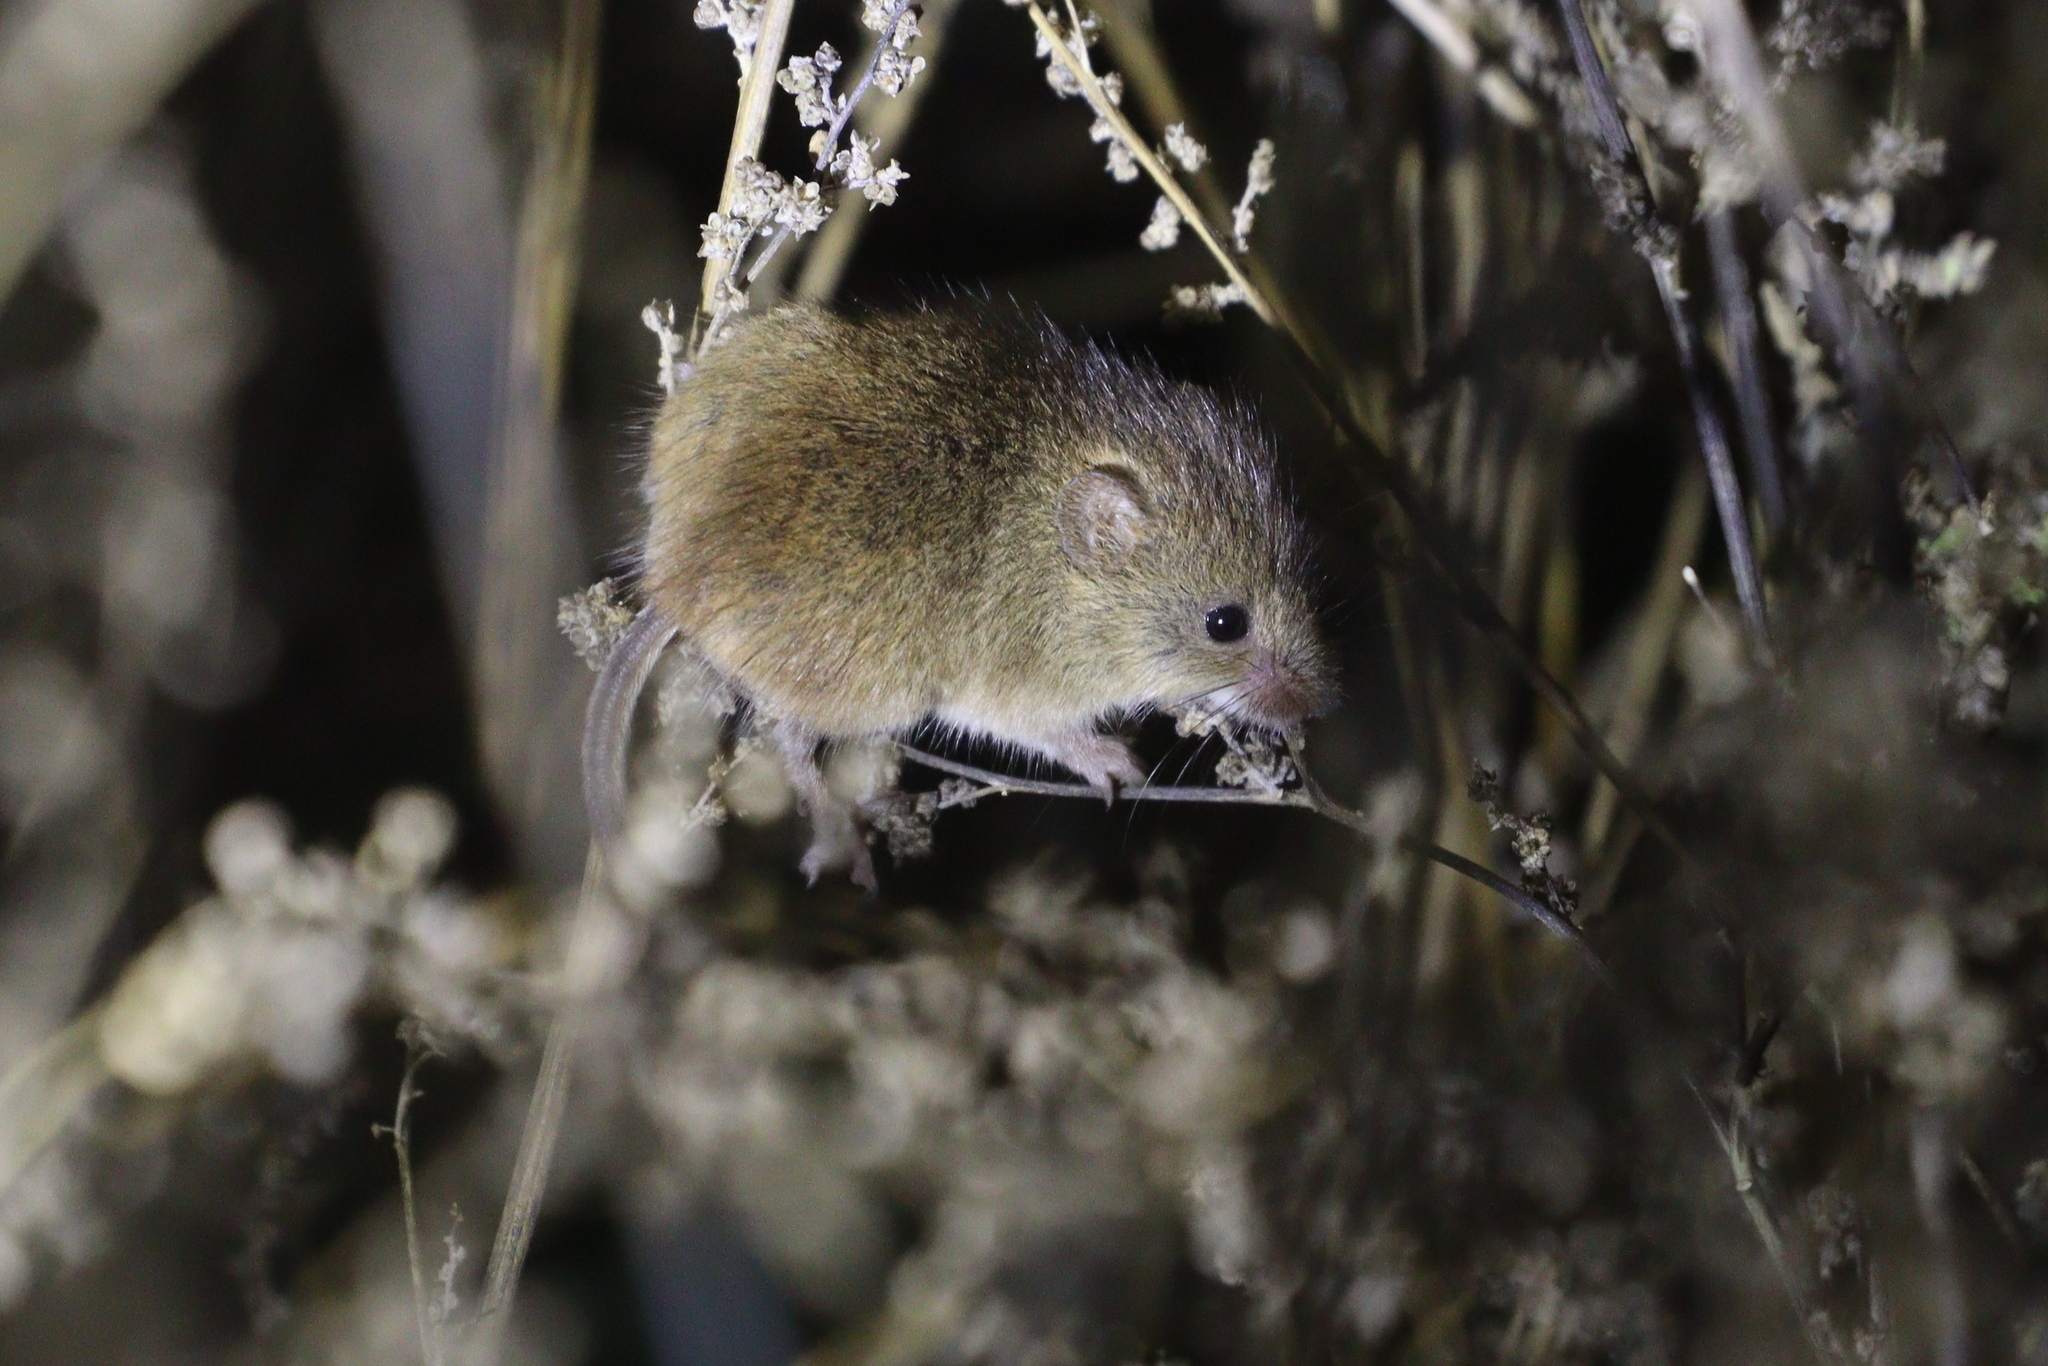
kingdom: Animalia
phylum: Chordata
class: Mammalia
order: Rodentia
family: Muridae
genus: Micromys
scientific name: Micromys minutus
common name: Harvest mouse
